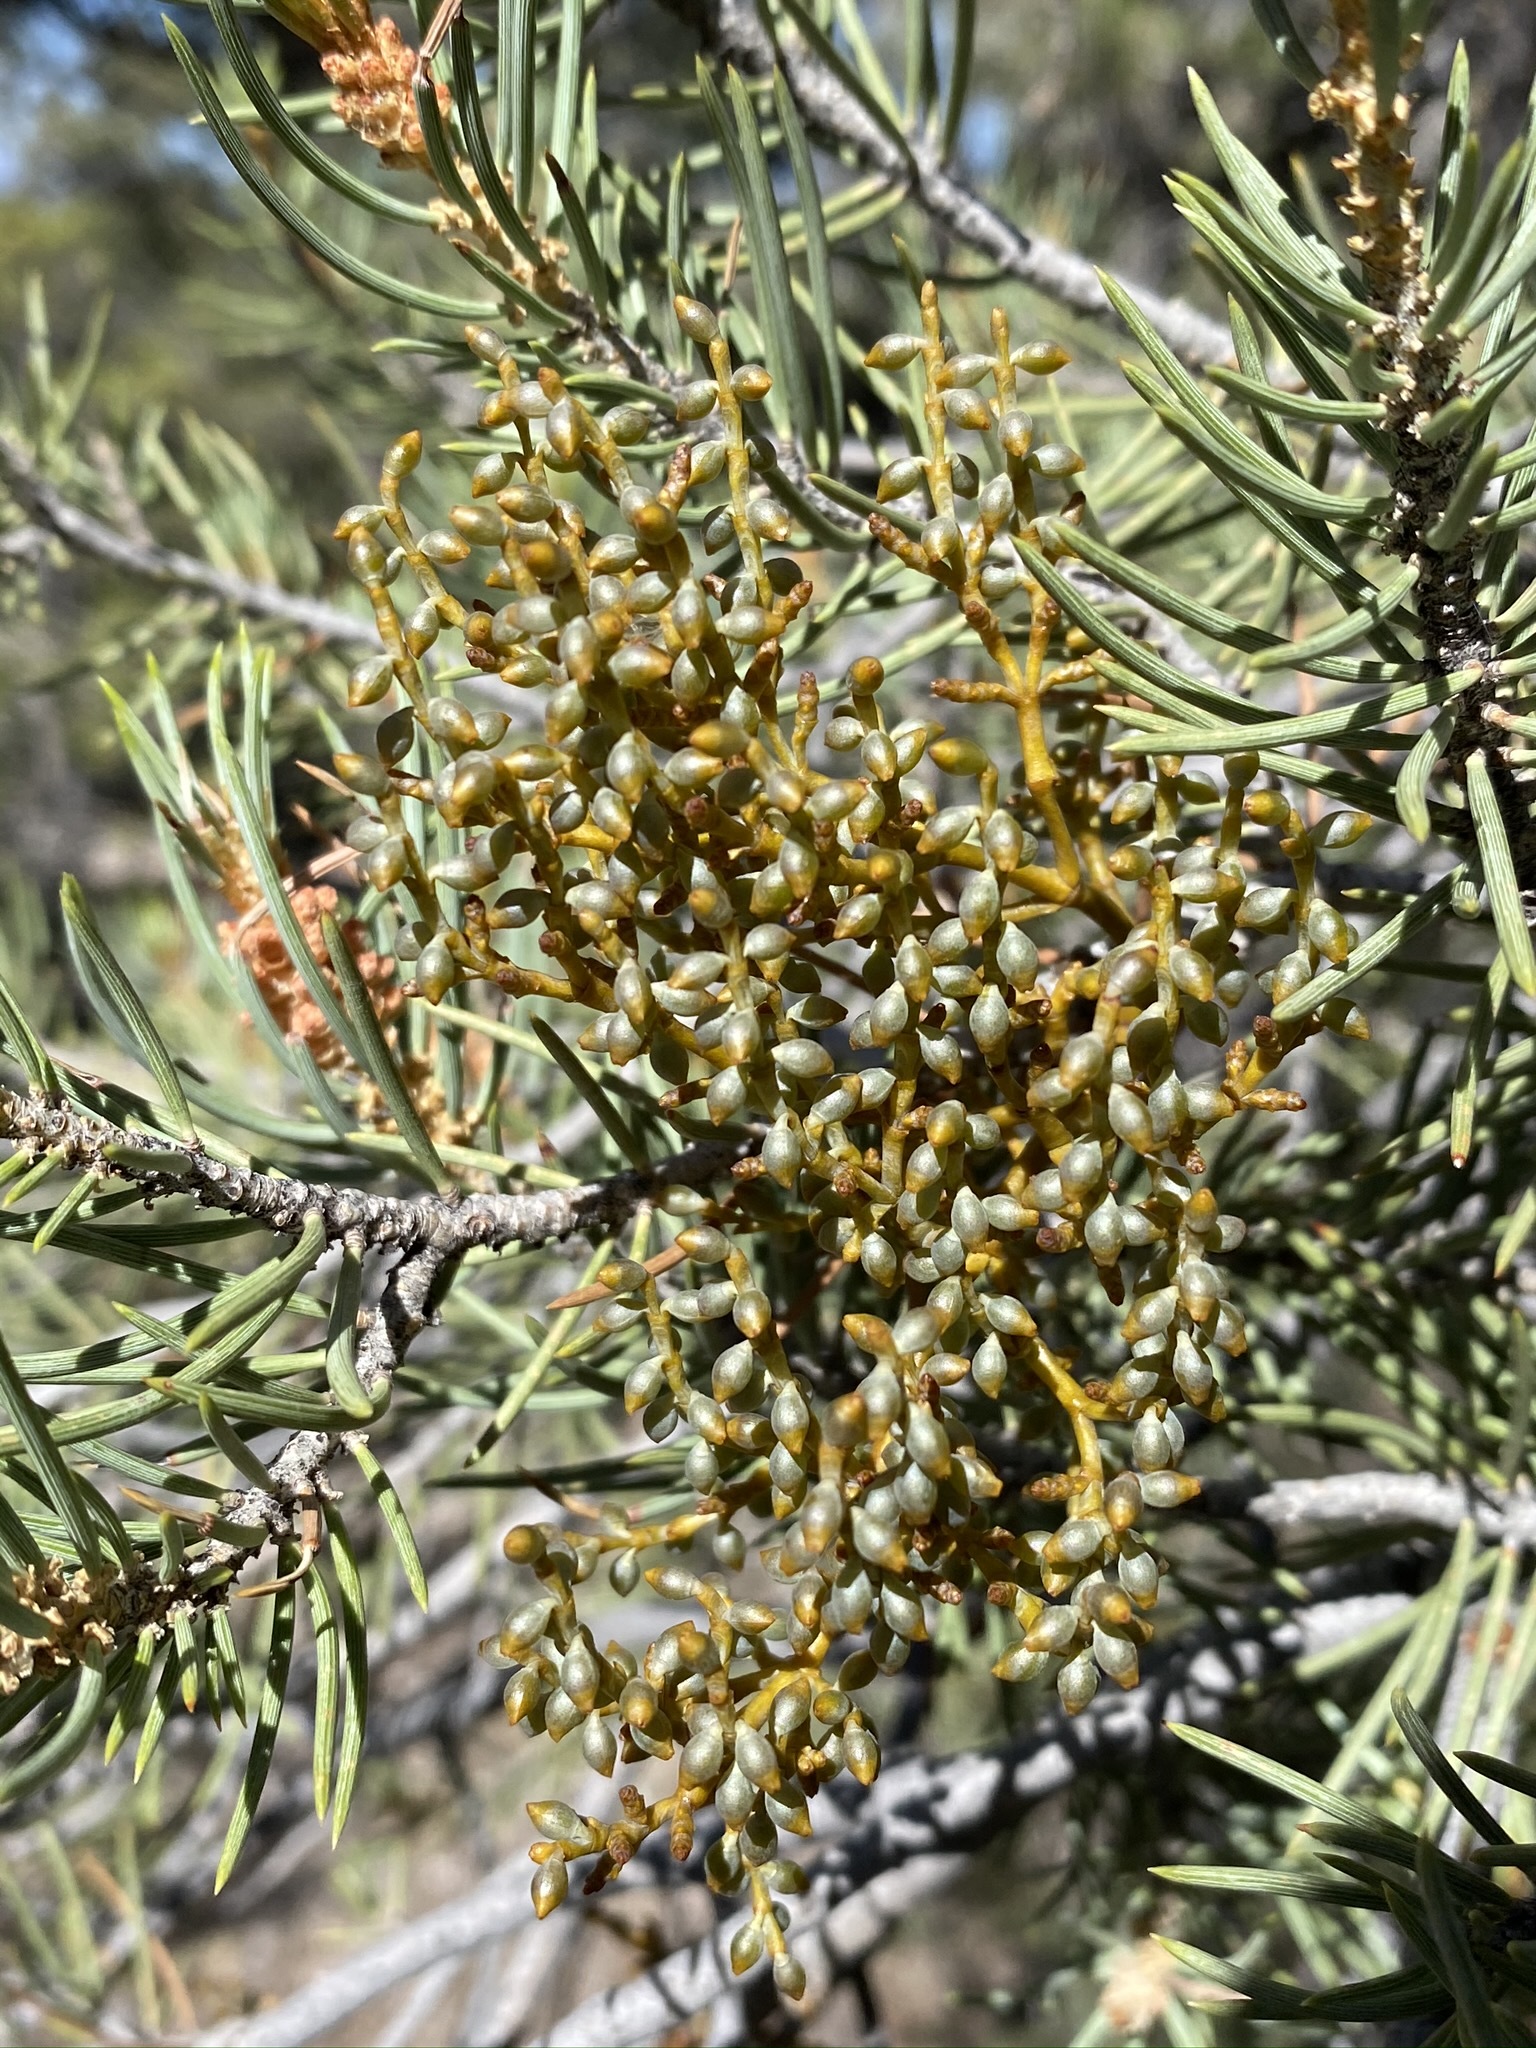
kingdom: Plantae
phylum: Tracheophyta
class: Magnoliopsida
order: Santalales
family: Viscaceae
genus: Arceuthobium
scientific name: Arceuthobium divaricatum
